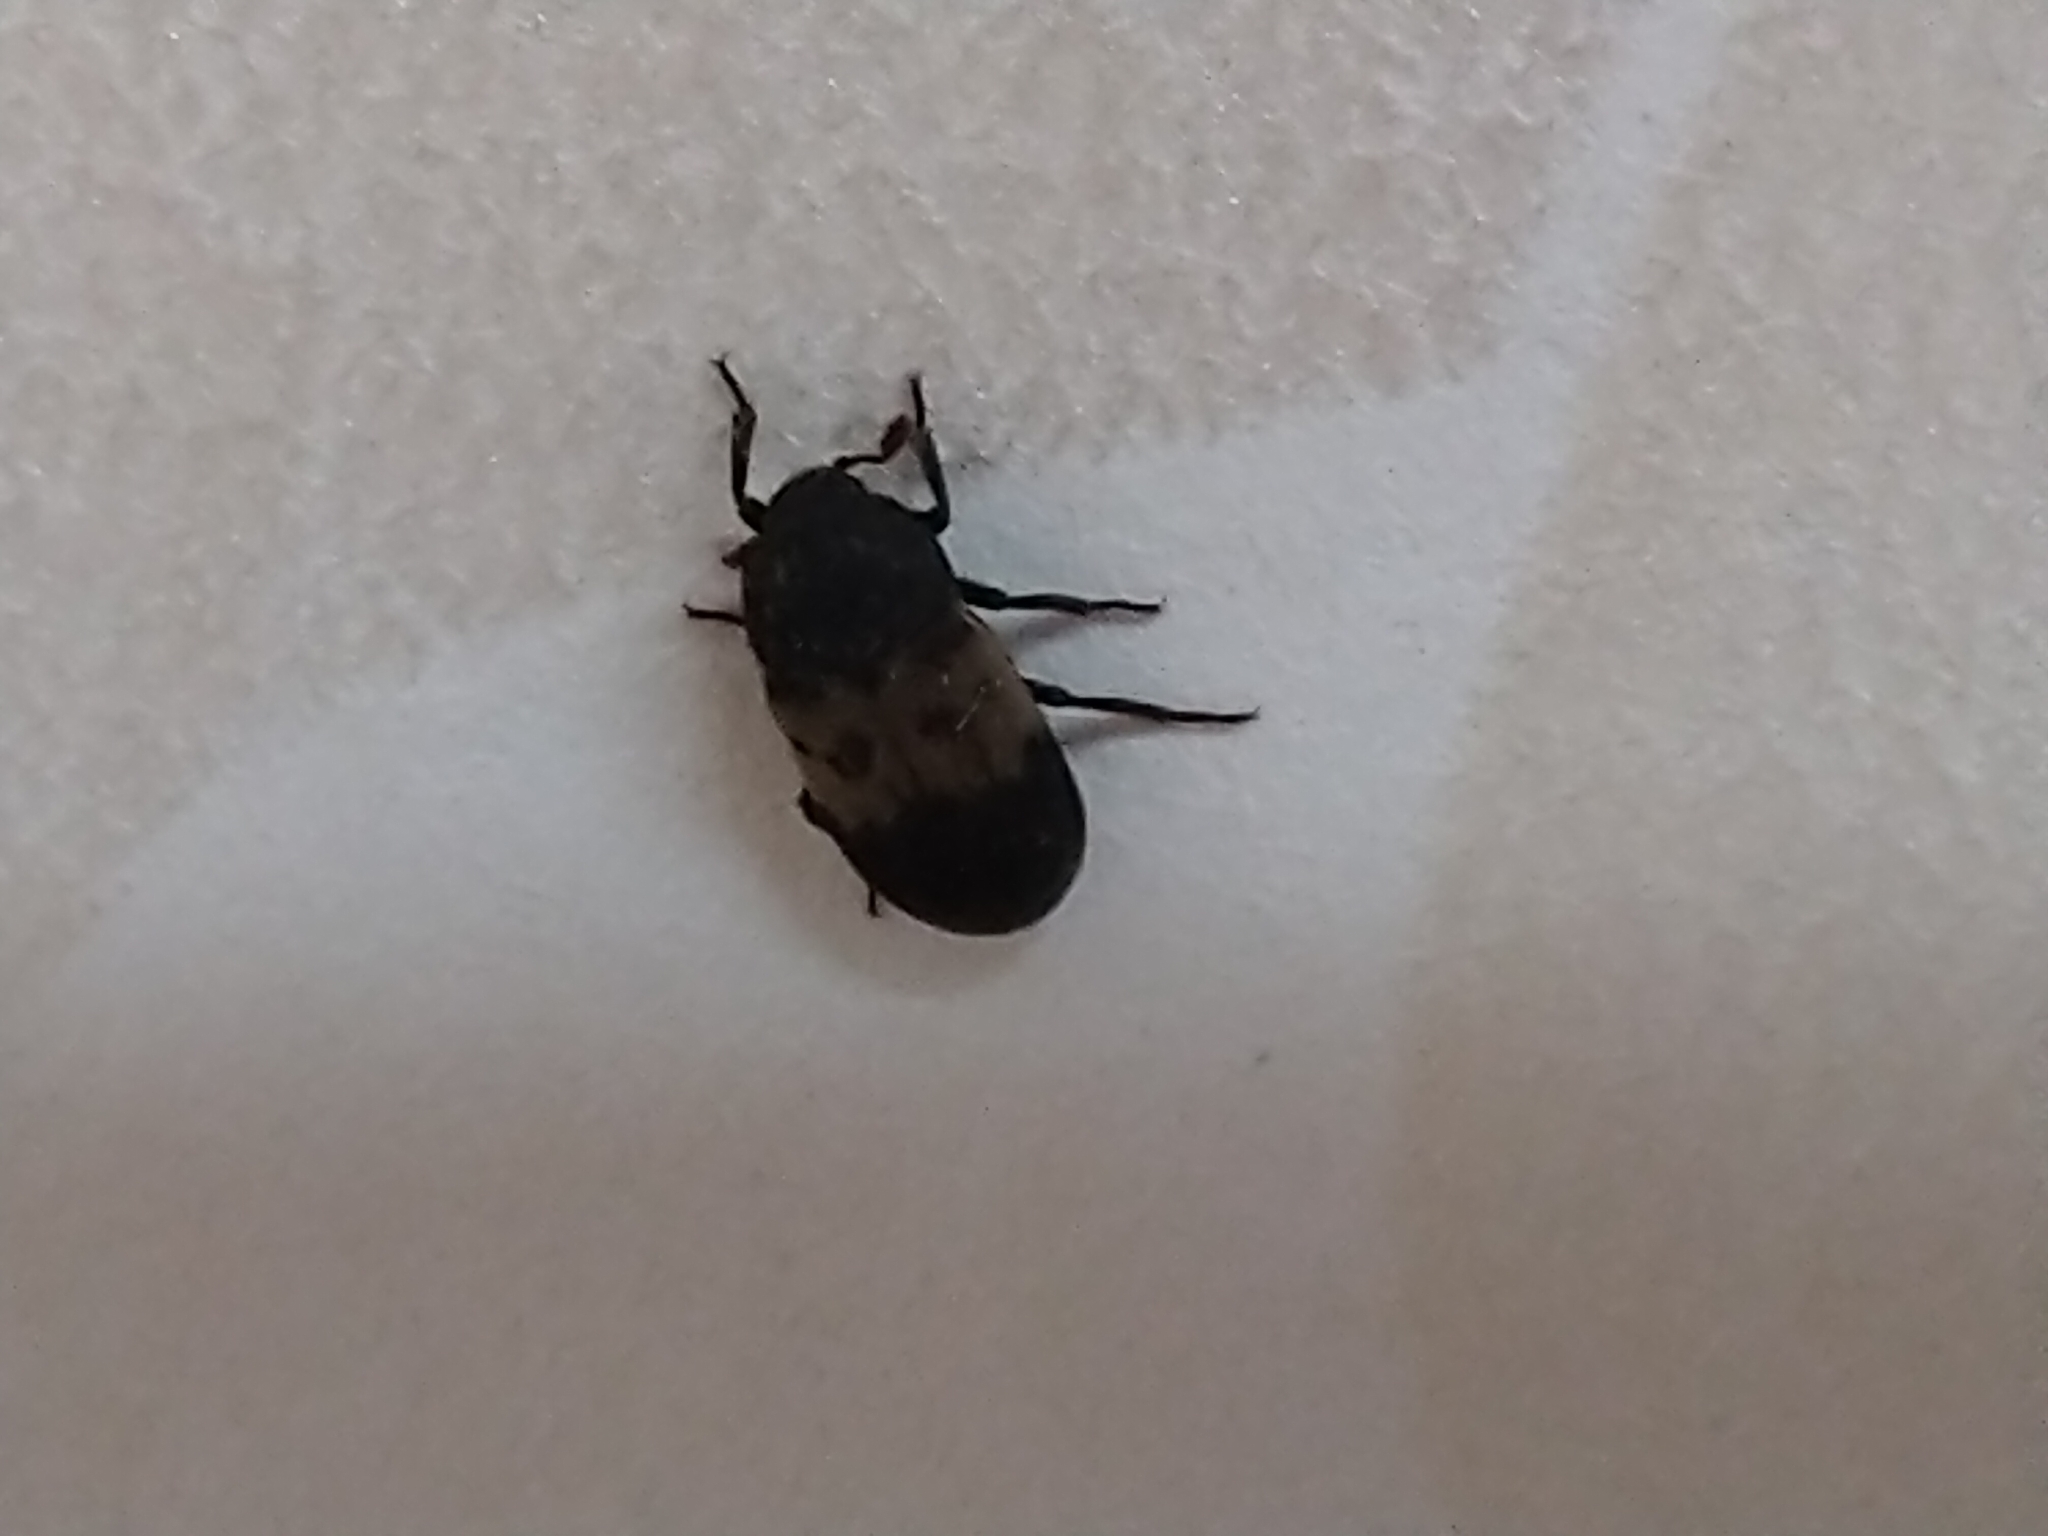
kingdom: Animalia
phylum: Arthropoda
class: Insecta
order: Coleoptera
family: Dermestidae
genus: Dermestes
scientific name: Dermestes lardarius
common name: Larder beetle
